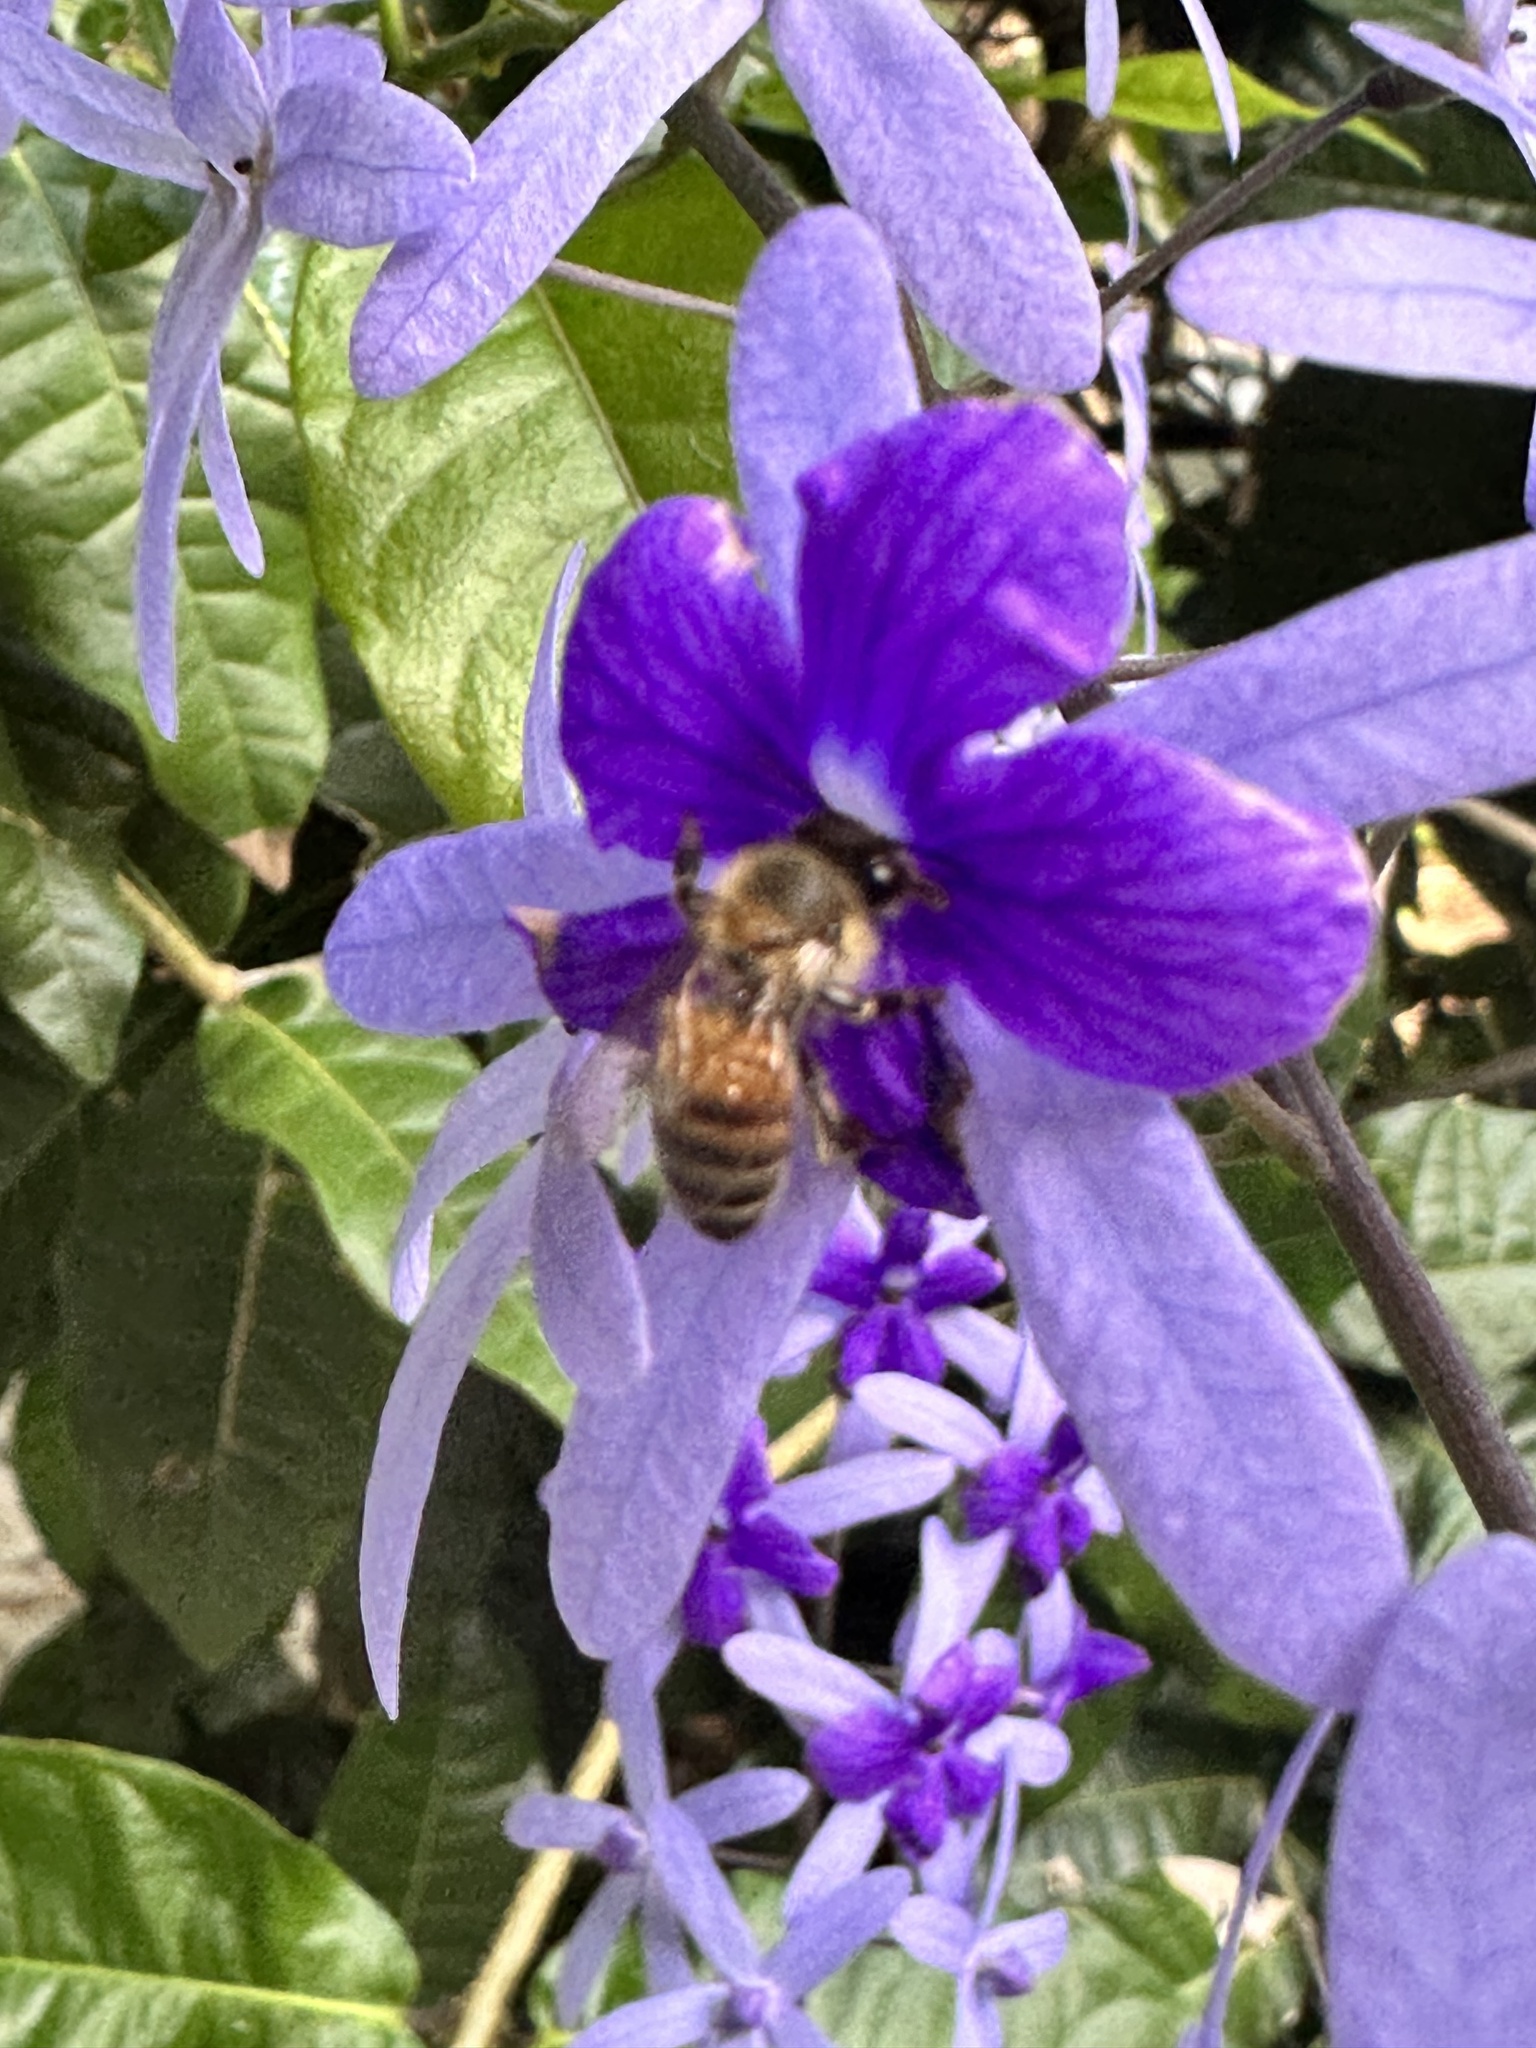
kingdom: Animalia
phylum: Arthropoda
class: Insecta
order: Hymenoptera
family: Apidae
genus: Apis
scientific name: Apis mellifera
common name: Honey bee
